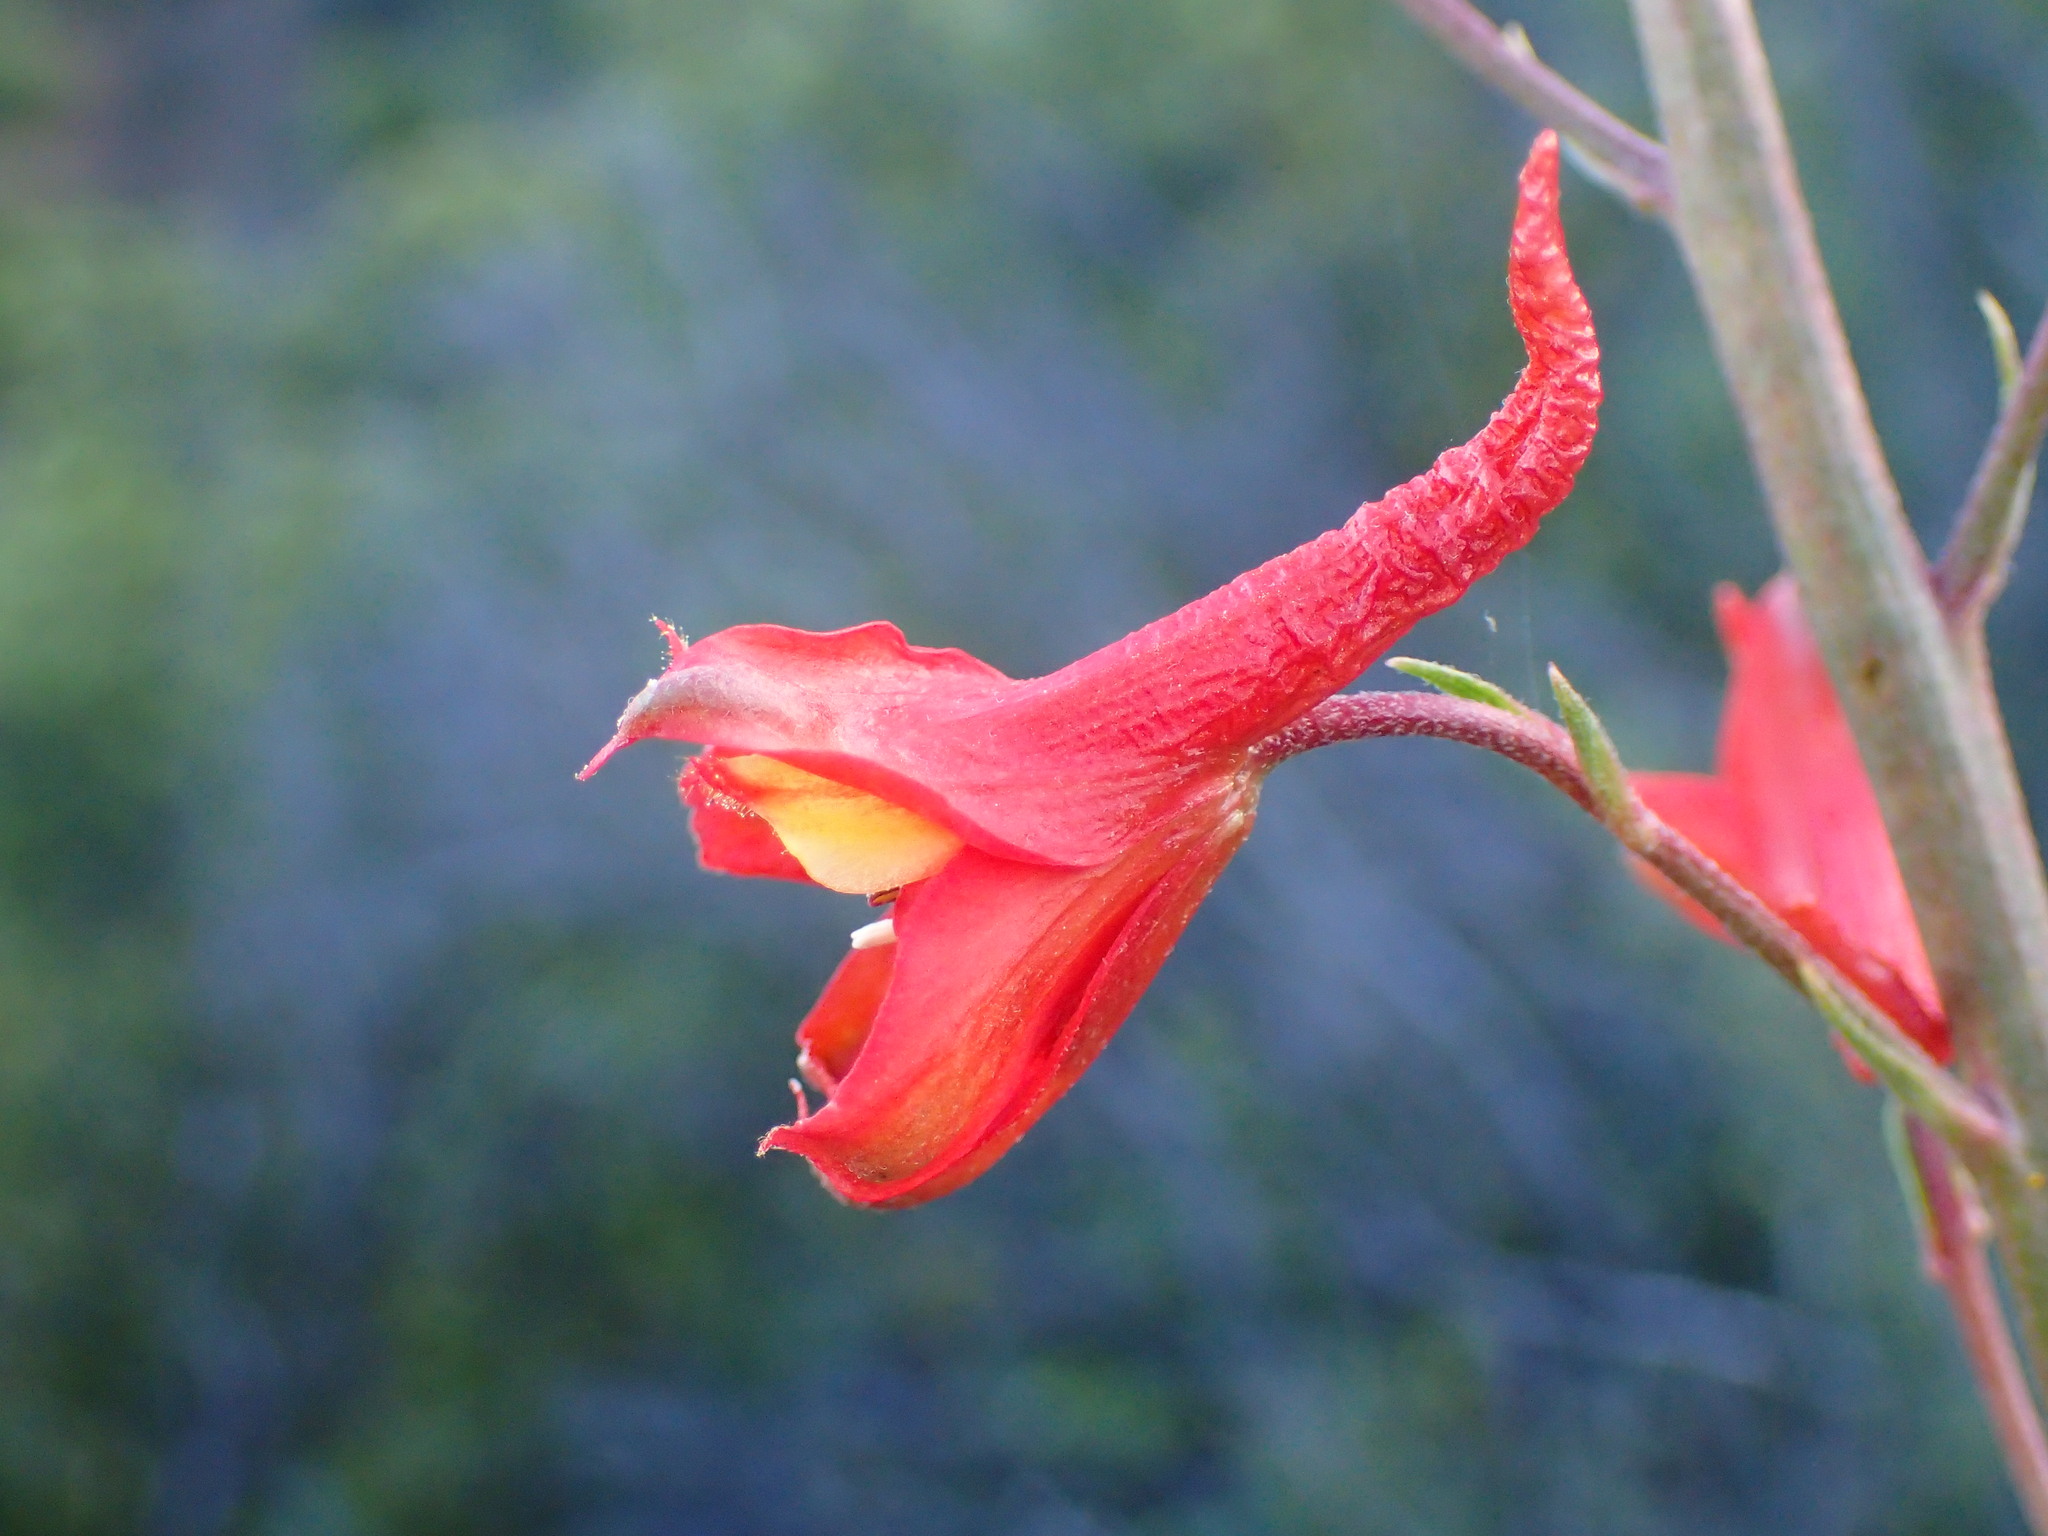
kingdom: Plantae
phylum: Tracheophyta
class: Magnoliopsida
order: Ranunculales
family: Ranunculaceae
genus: Delphinium
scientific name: Delphinium cardinale
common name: Scarlet larkspur
